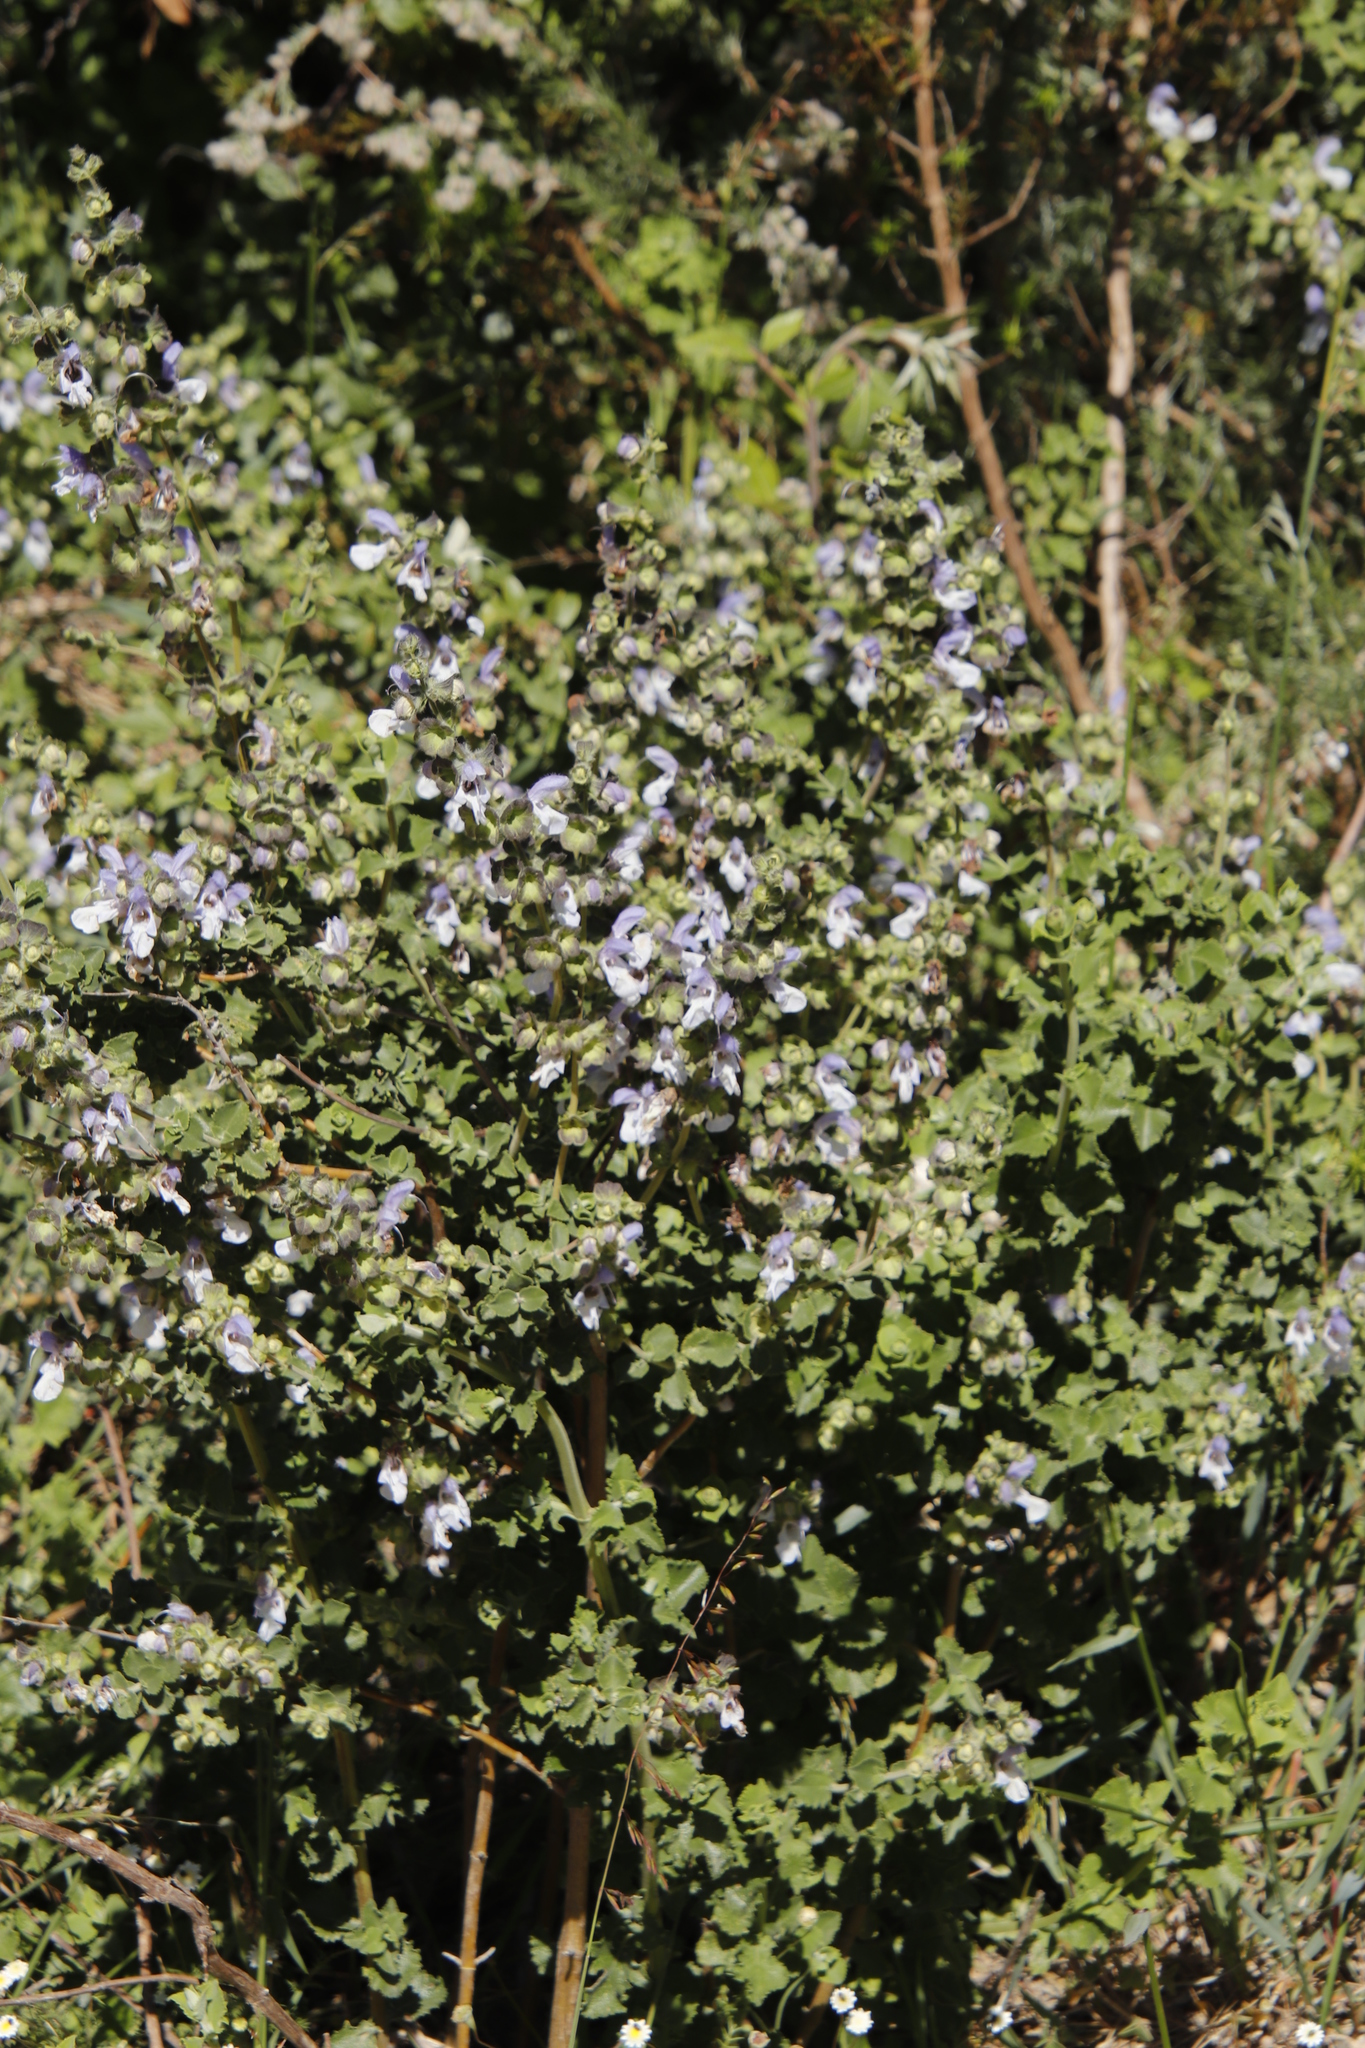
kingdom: Plantae
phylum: Tracheophyta
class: Magnoliopsida
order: Lamiales
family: Lamiaceae
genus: Salvia
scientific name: Salvia africana
